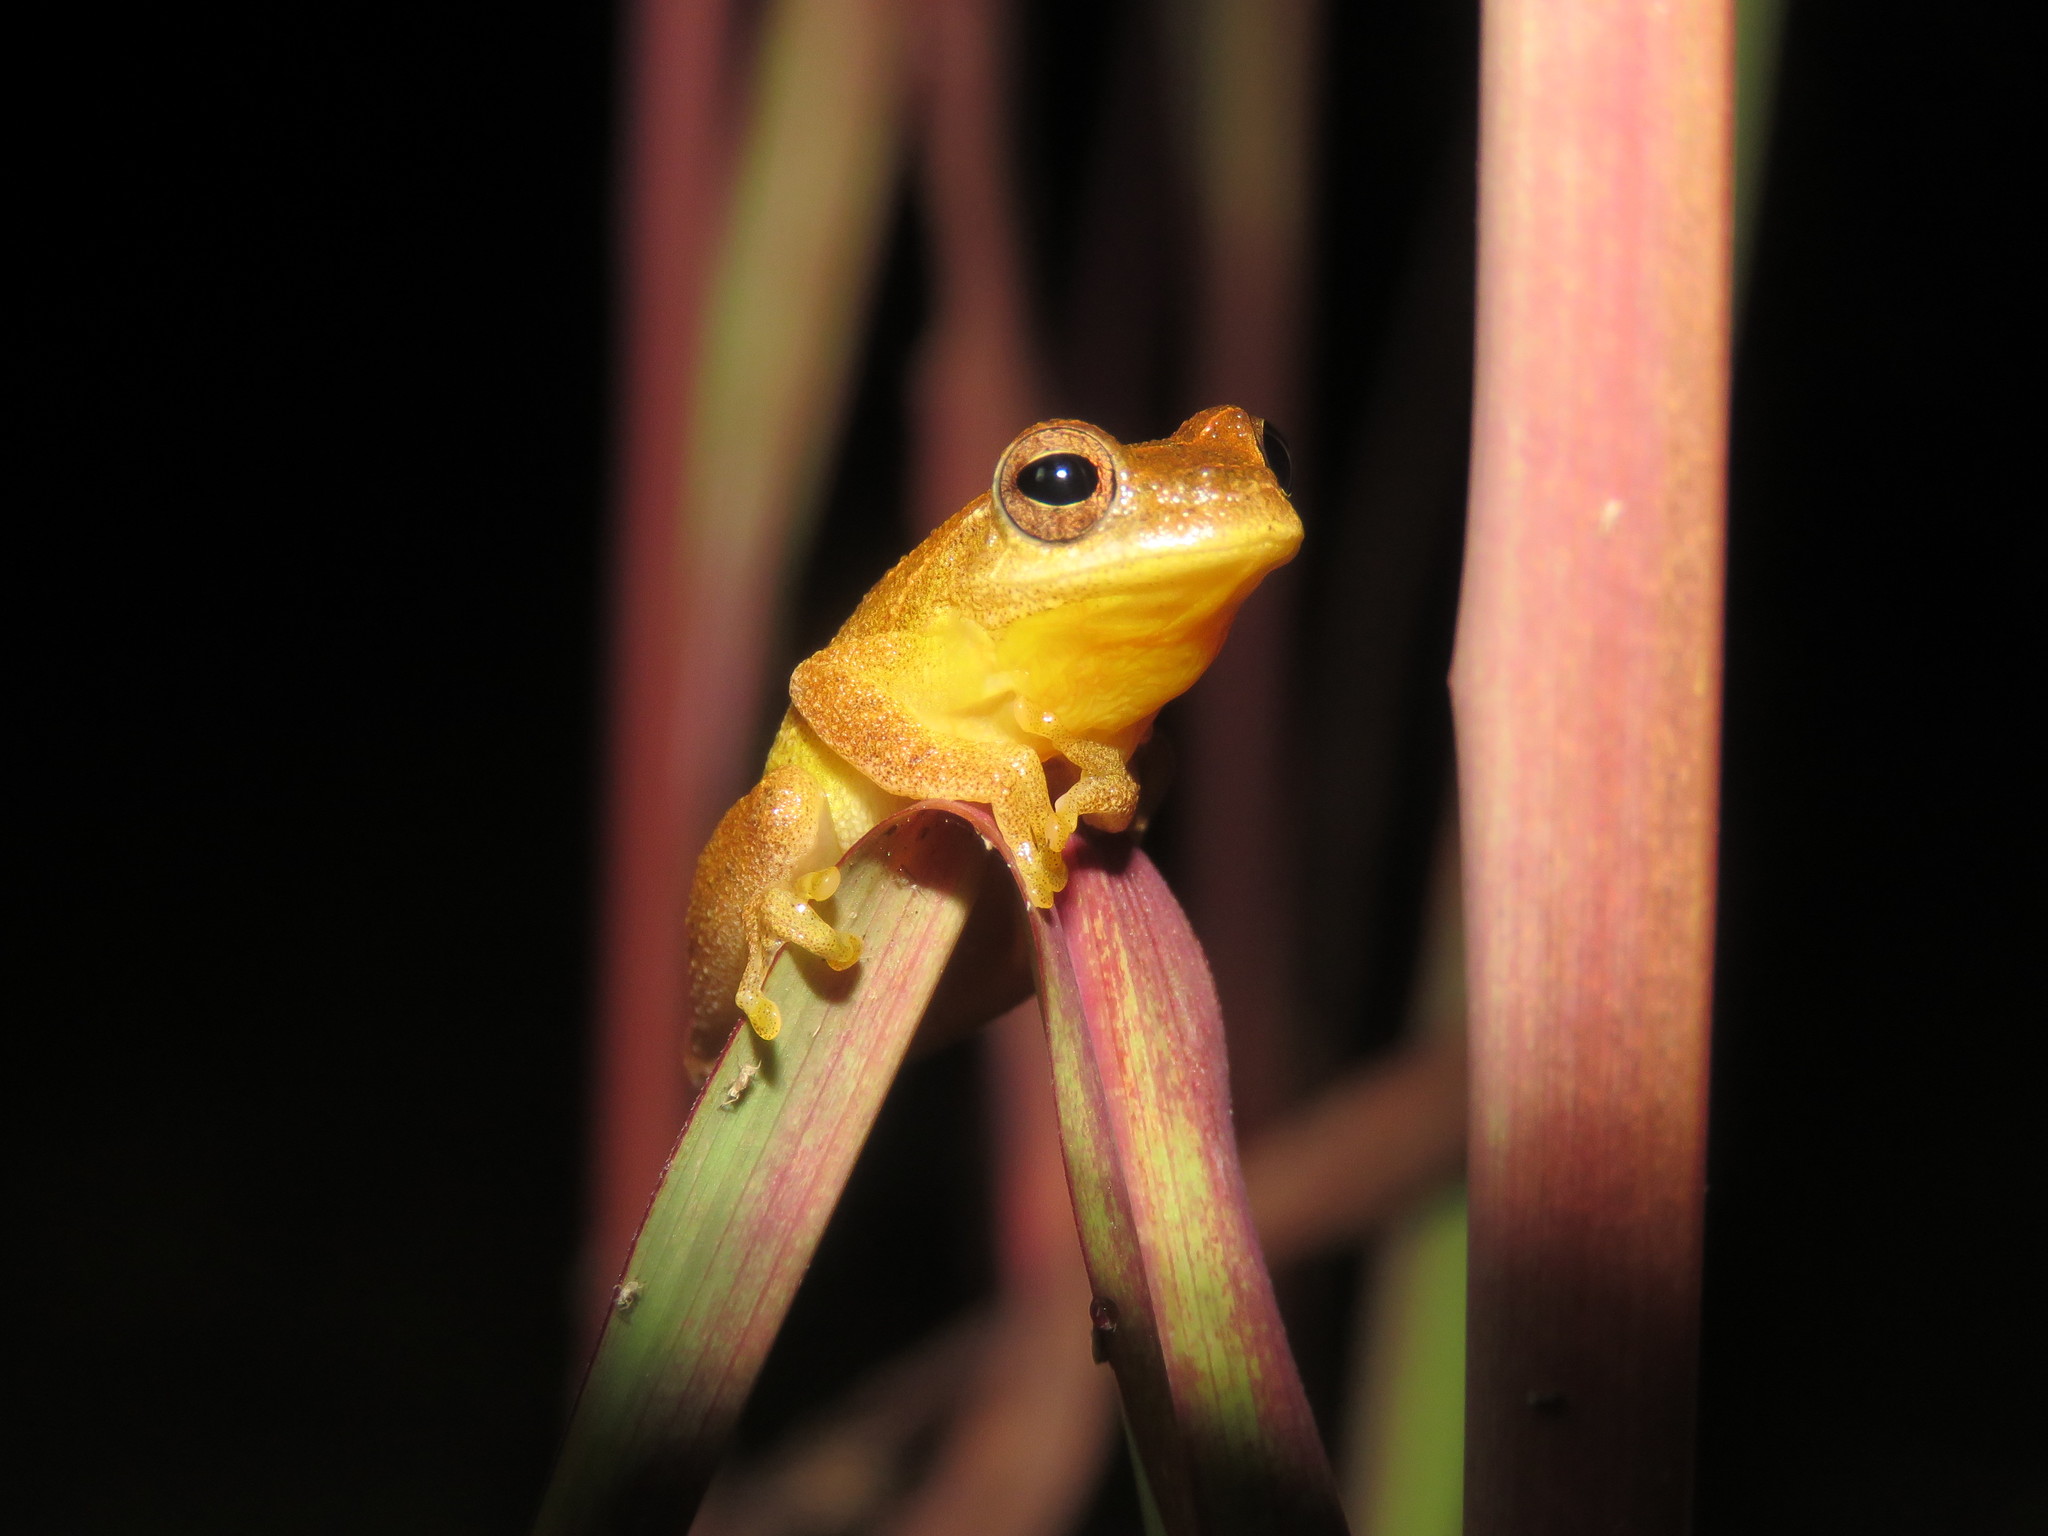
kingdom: Animalia
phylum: Chordata
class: Amphibia
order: Anura
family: Hylidae
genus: Dendropsophus
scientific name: Dendropsophus minutus
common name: Lesser treefrog
